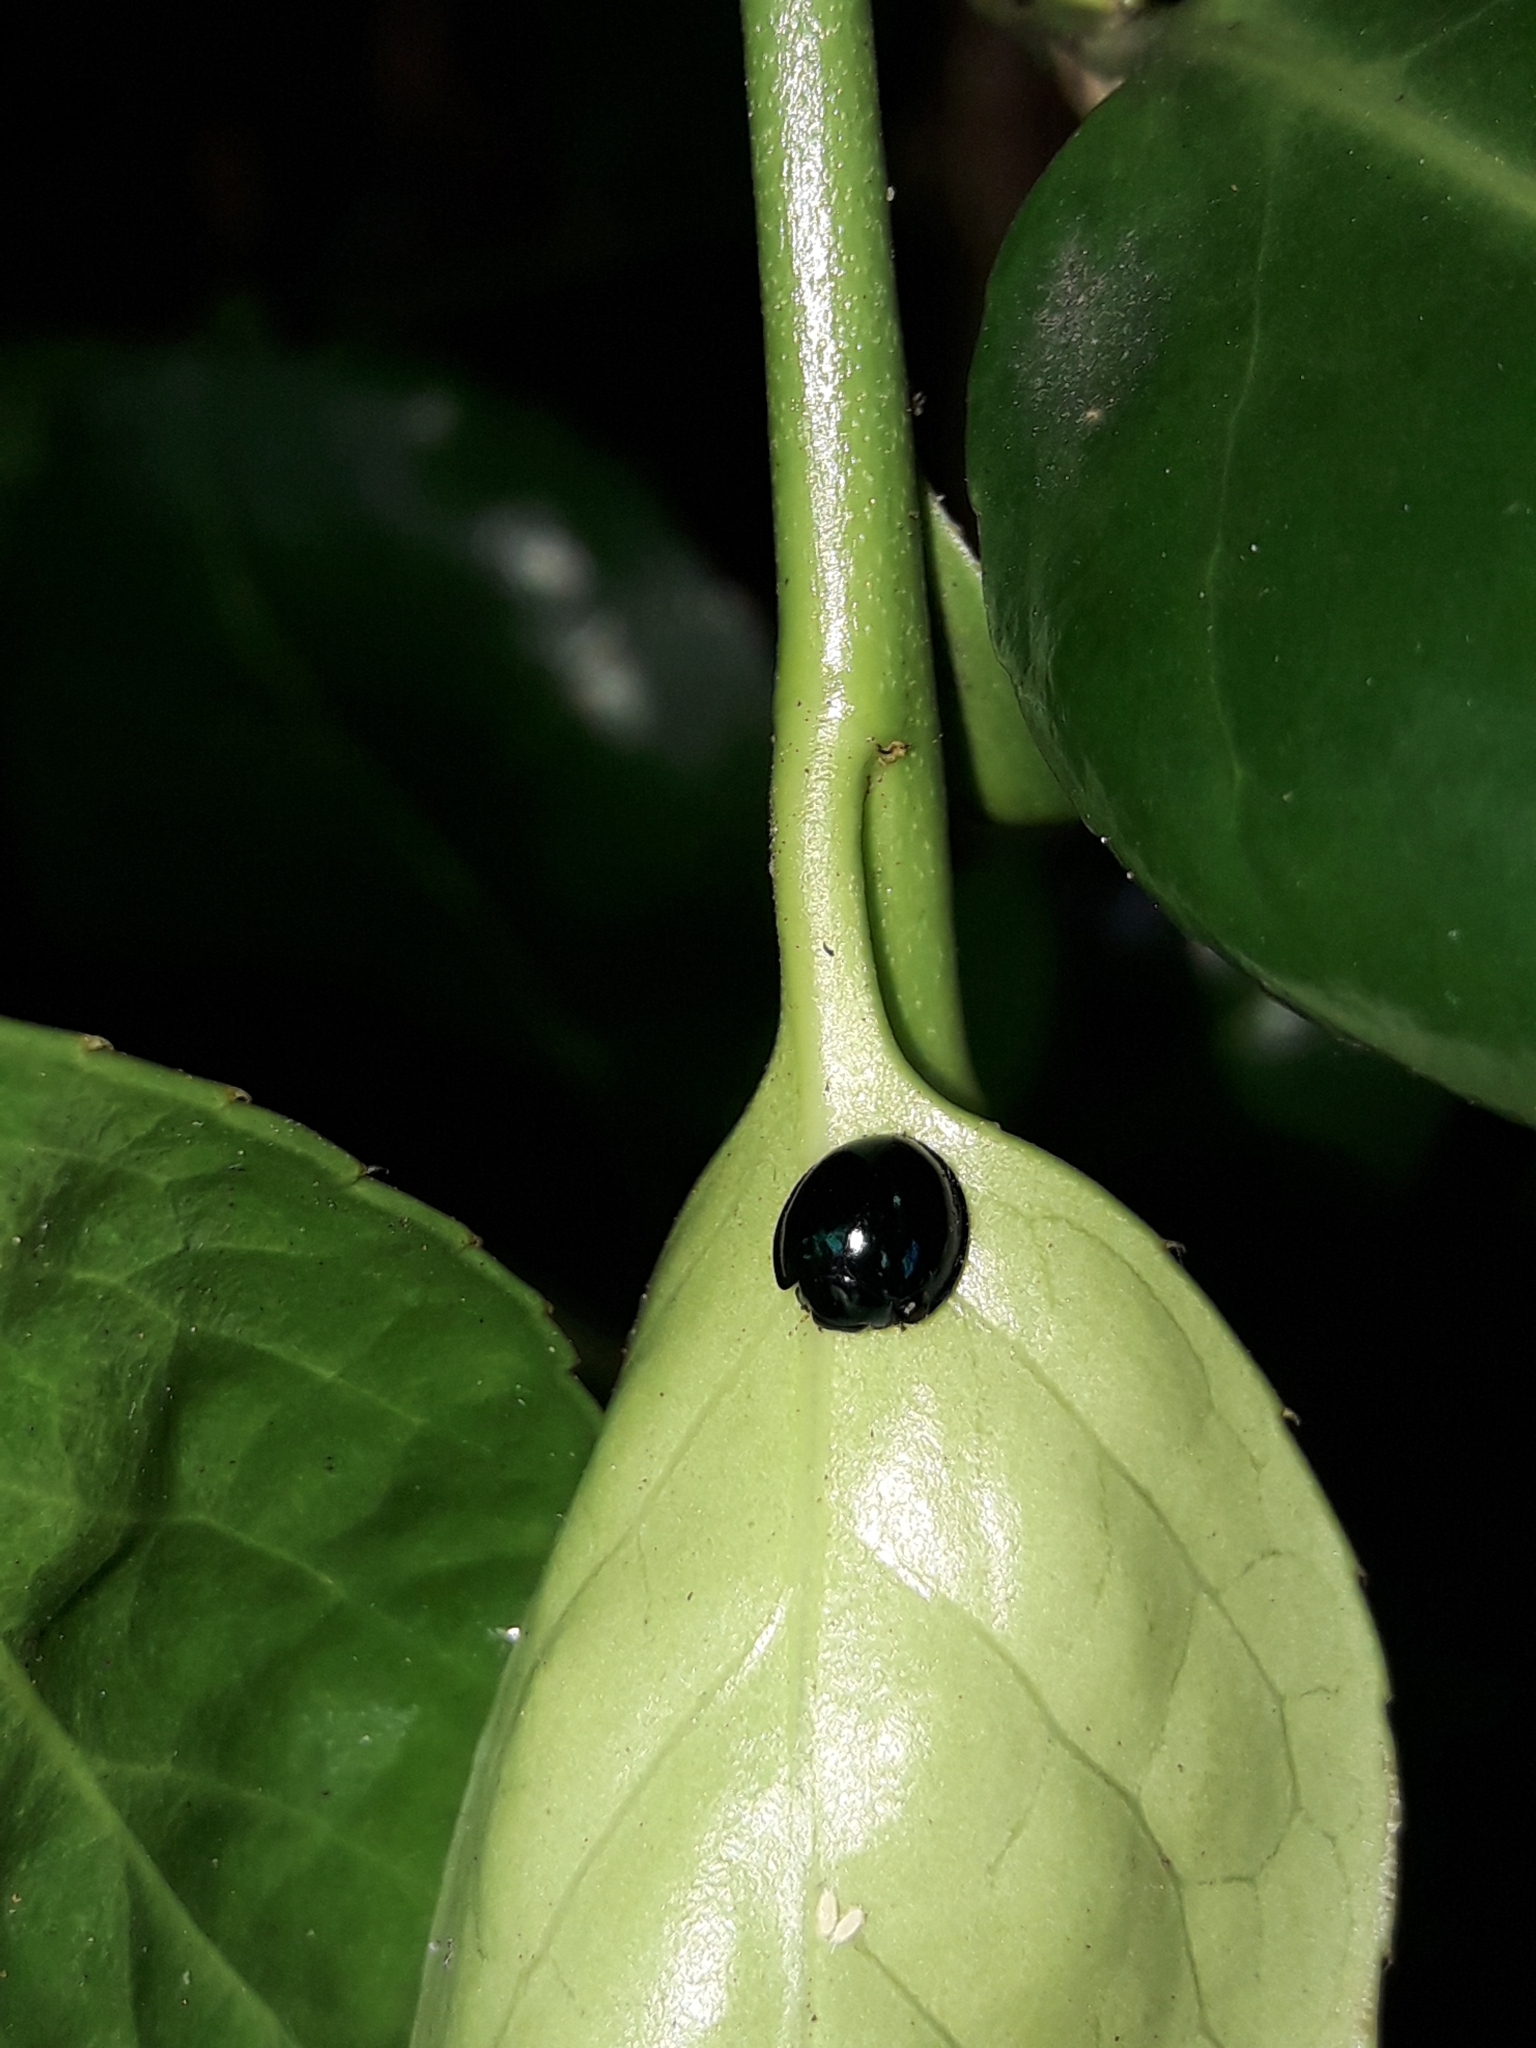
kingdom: Animalia
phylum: Arthropoda
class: Insecta
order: Coleoptera
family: Coccinellidae
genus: Halmus
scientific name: Halmus chalybeus
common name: Steel blue ladybird beetle
